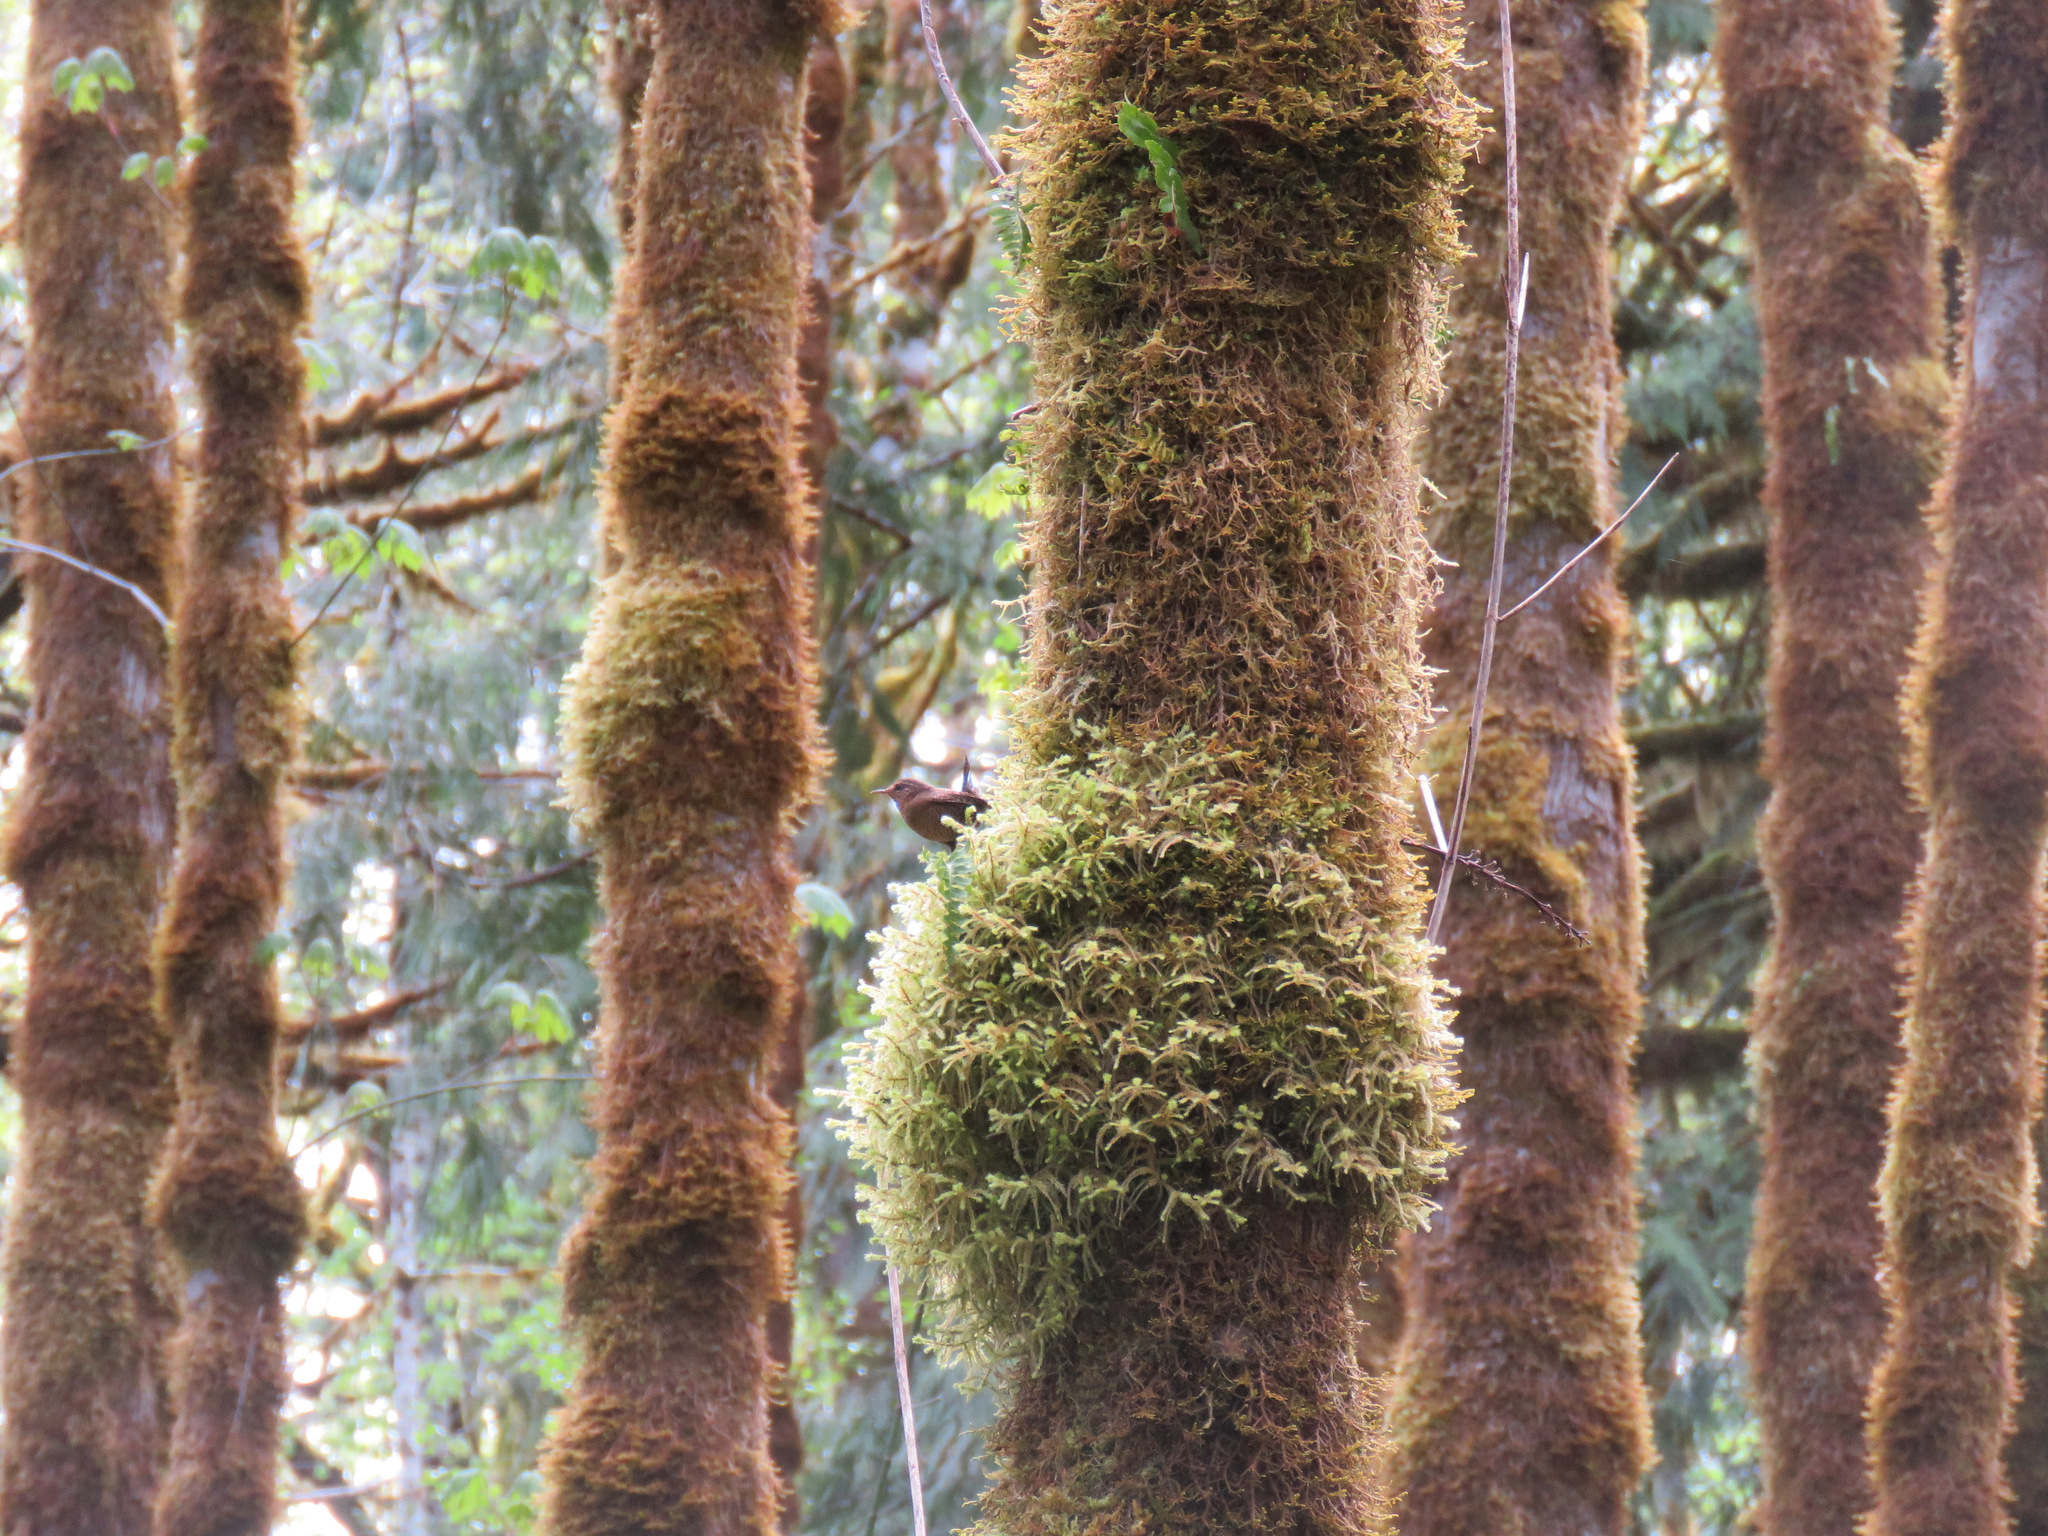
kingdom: Animalia
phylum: Chordata
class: Aves
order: Passeriformes
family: Troglodytidae
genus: Troglodytes
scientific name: Troglodytes pacificus
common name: Pacific wren
